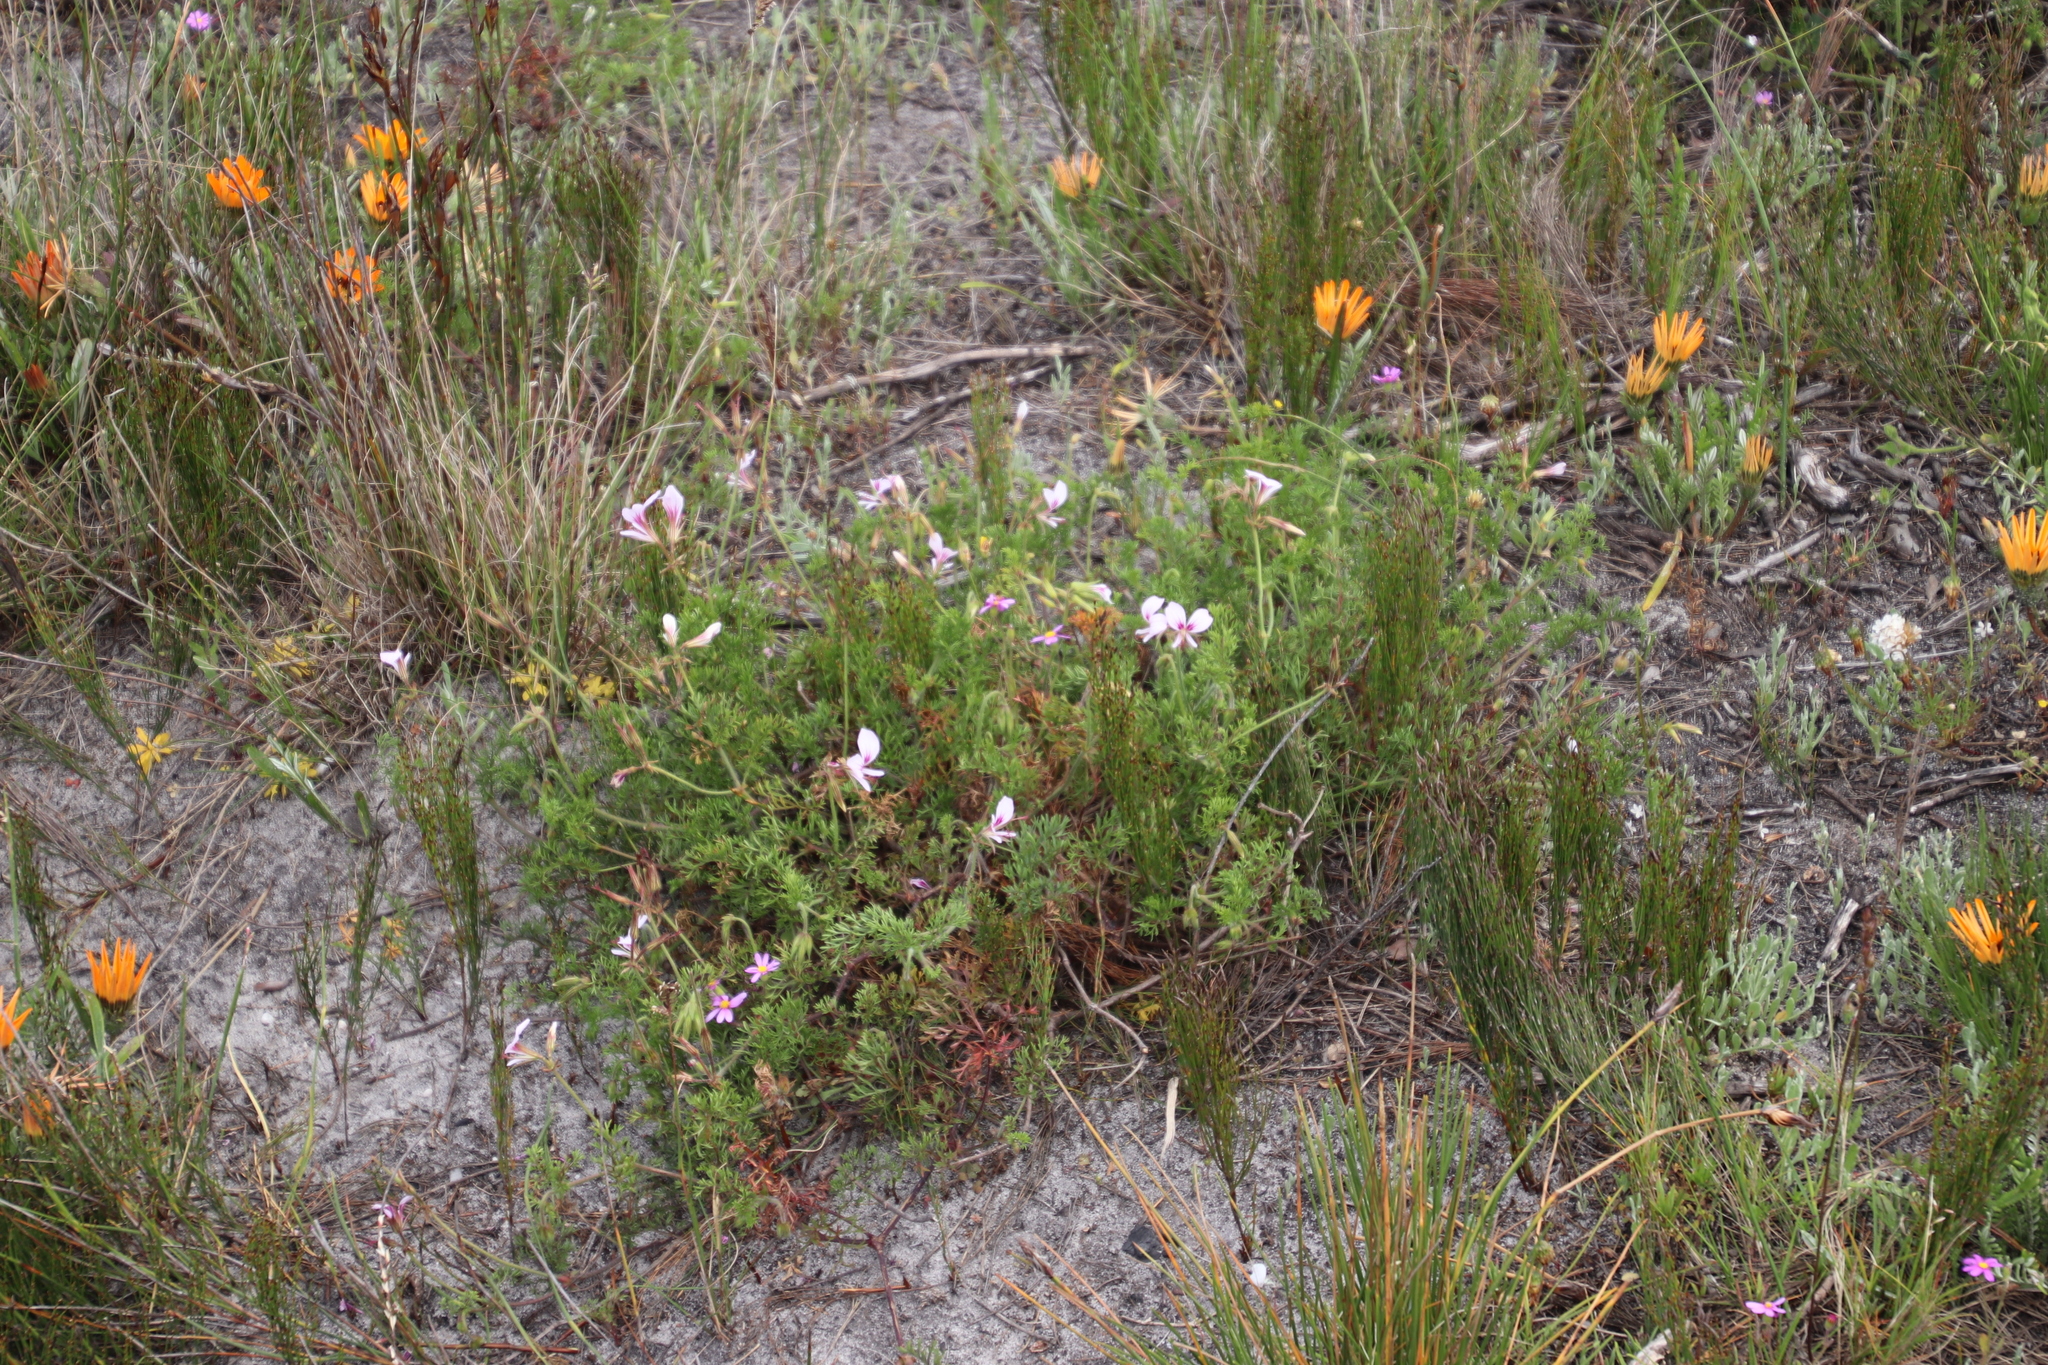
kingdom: Plantae
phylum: Tracheophyta
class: Magnoliopsida
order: Geraniales
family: Geraniaceae
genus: Pelargonium
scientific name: Pelargonium myrrhifolium
